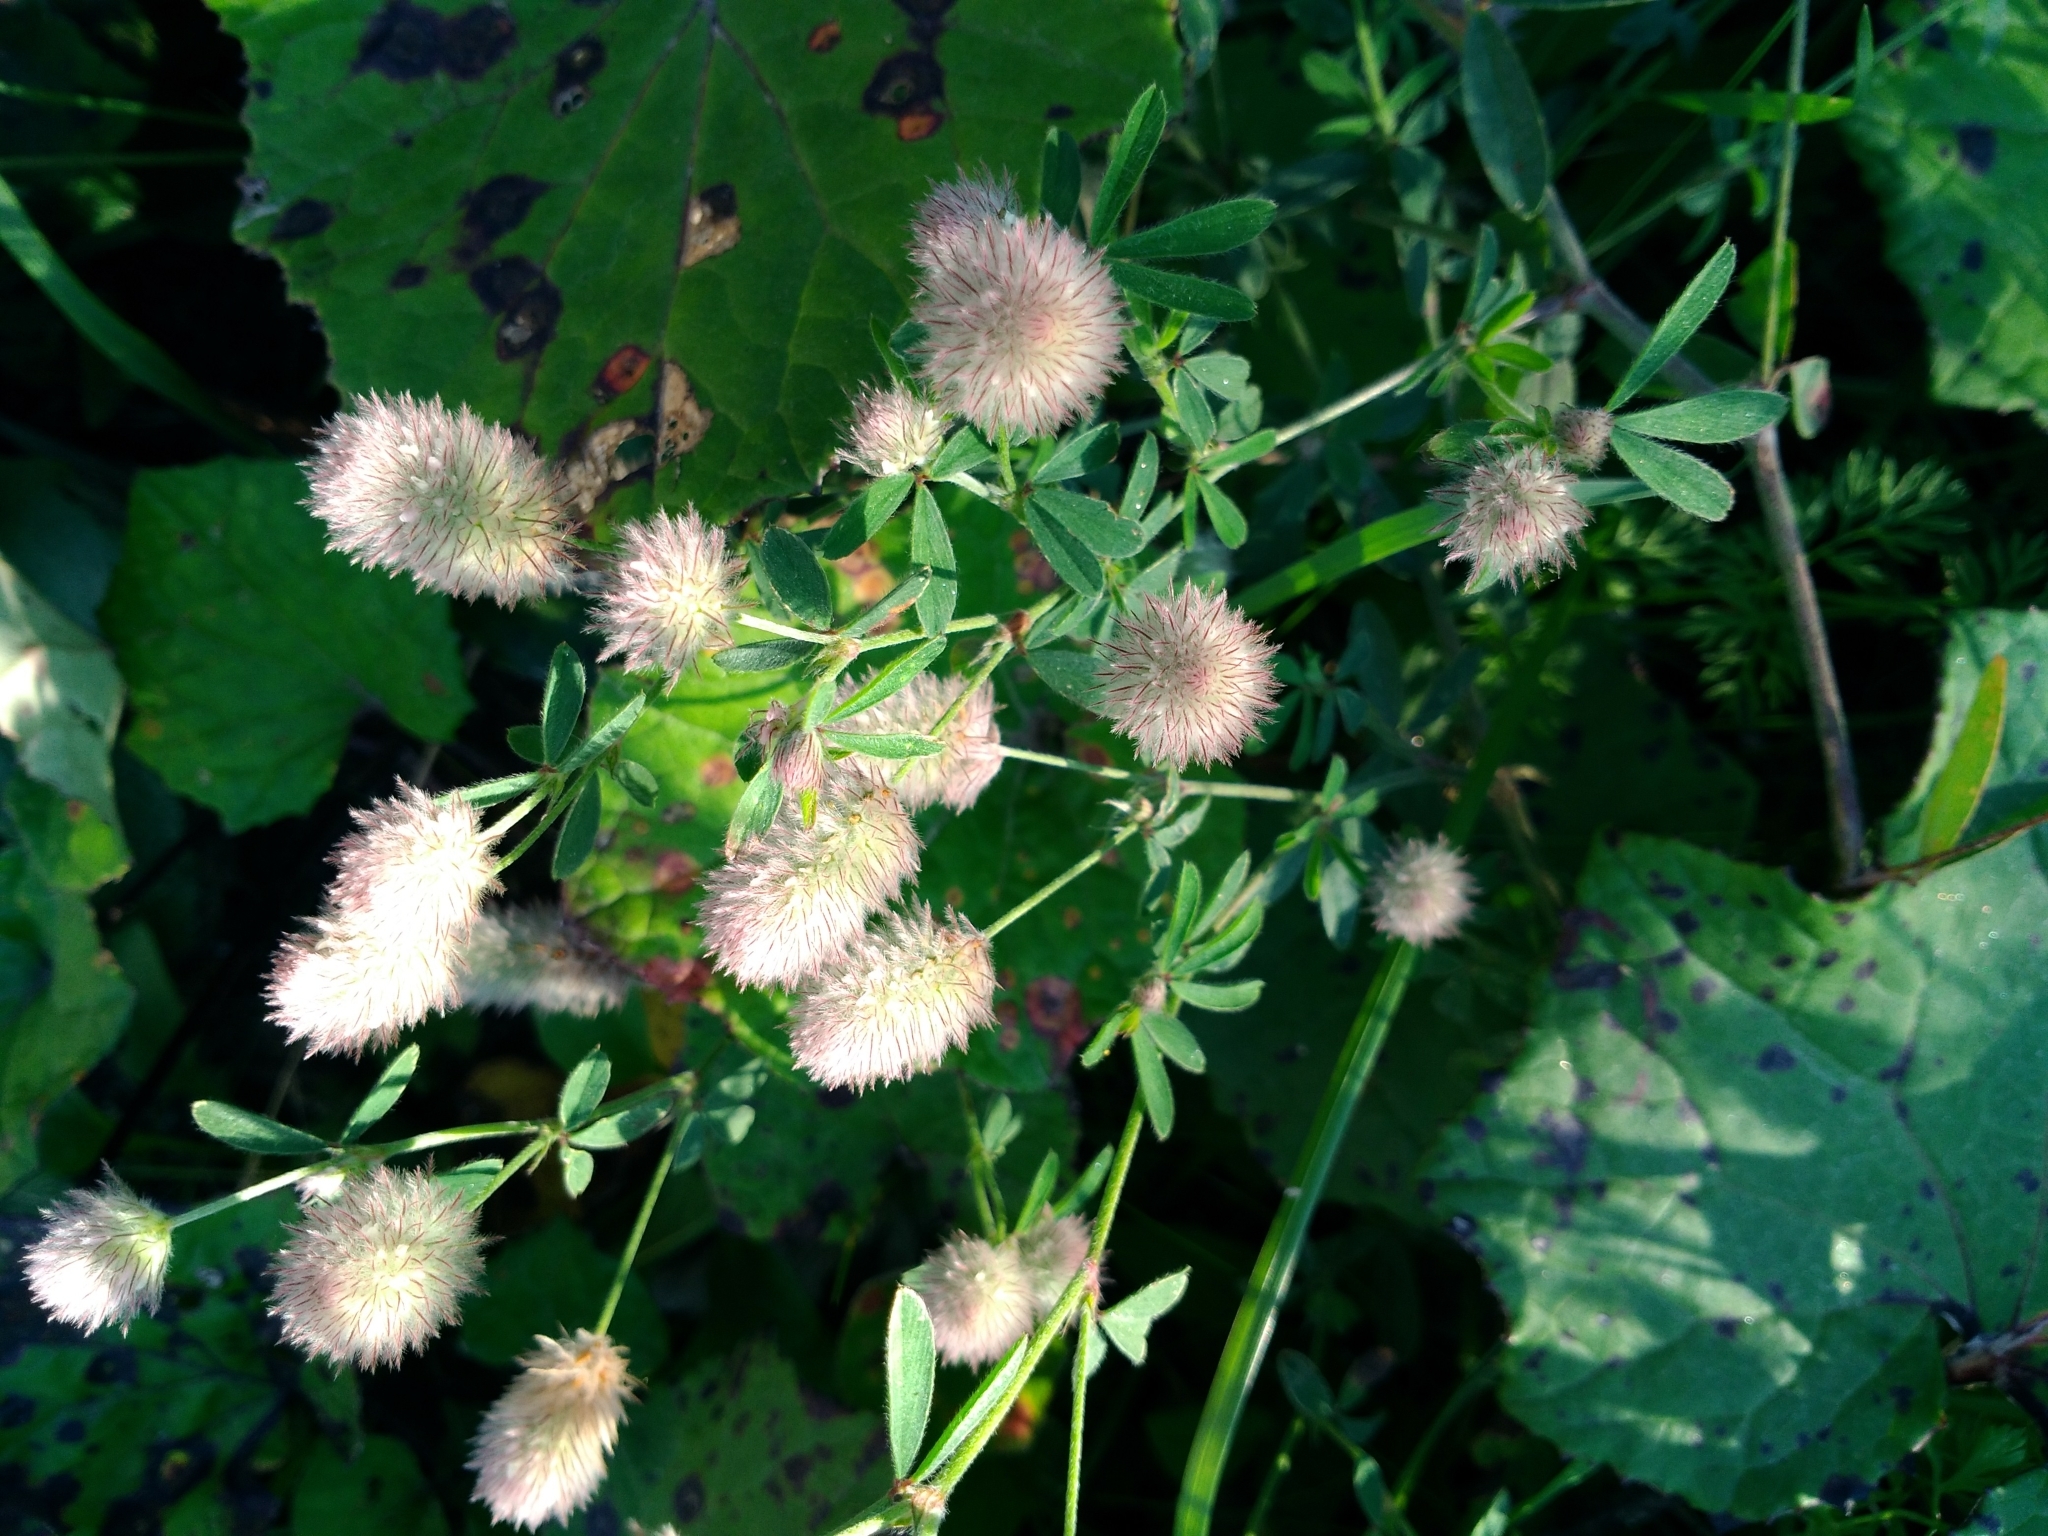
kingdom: Plantae
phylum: Tracheophyta
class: Magnoliopsida
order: Fabales
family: Fabaceae
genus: Trifolium
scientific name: Trifolium arvense
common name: Hare's-foot clover
